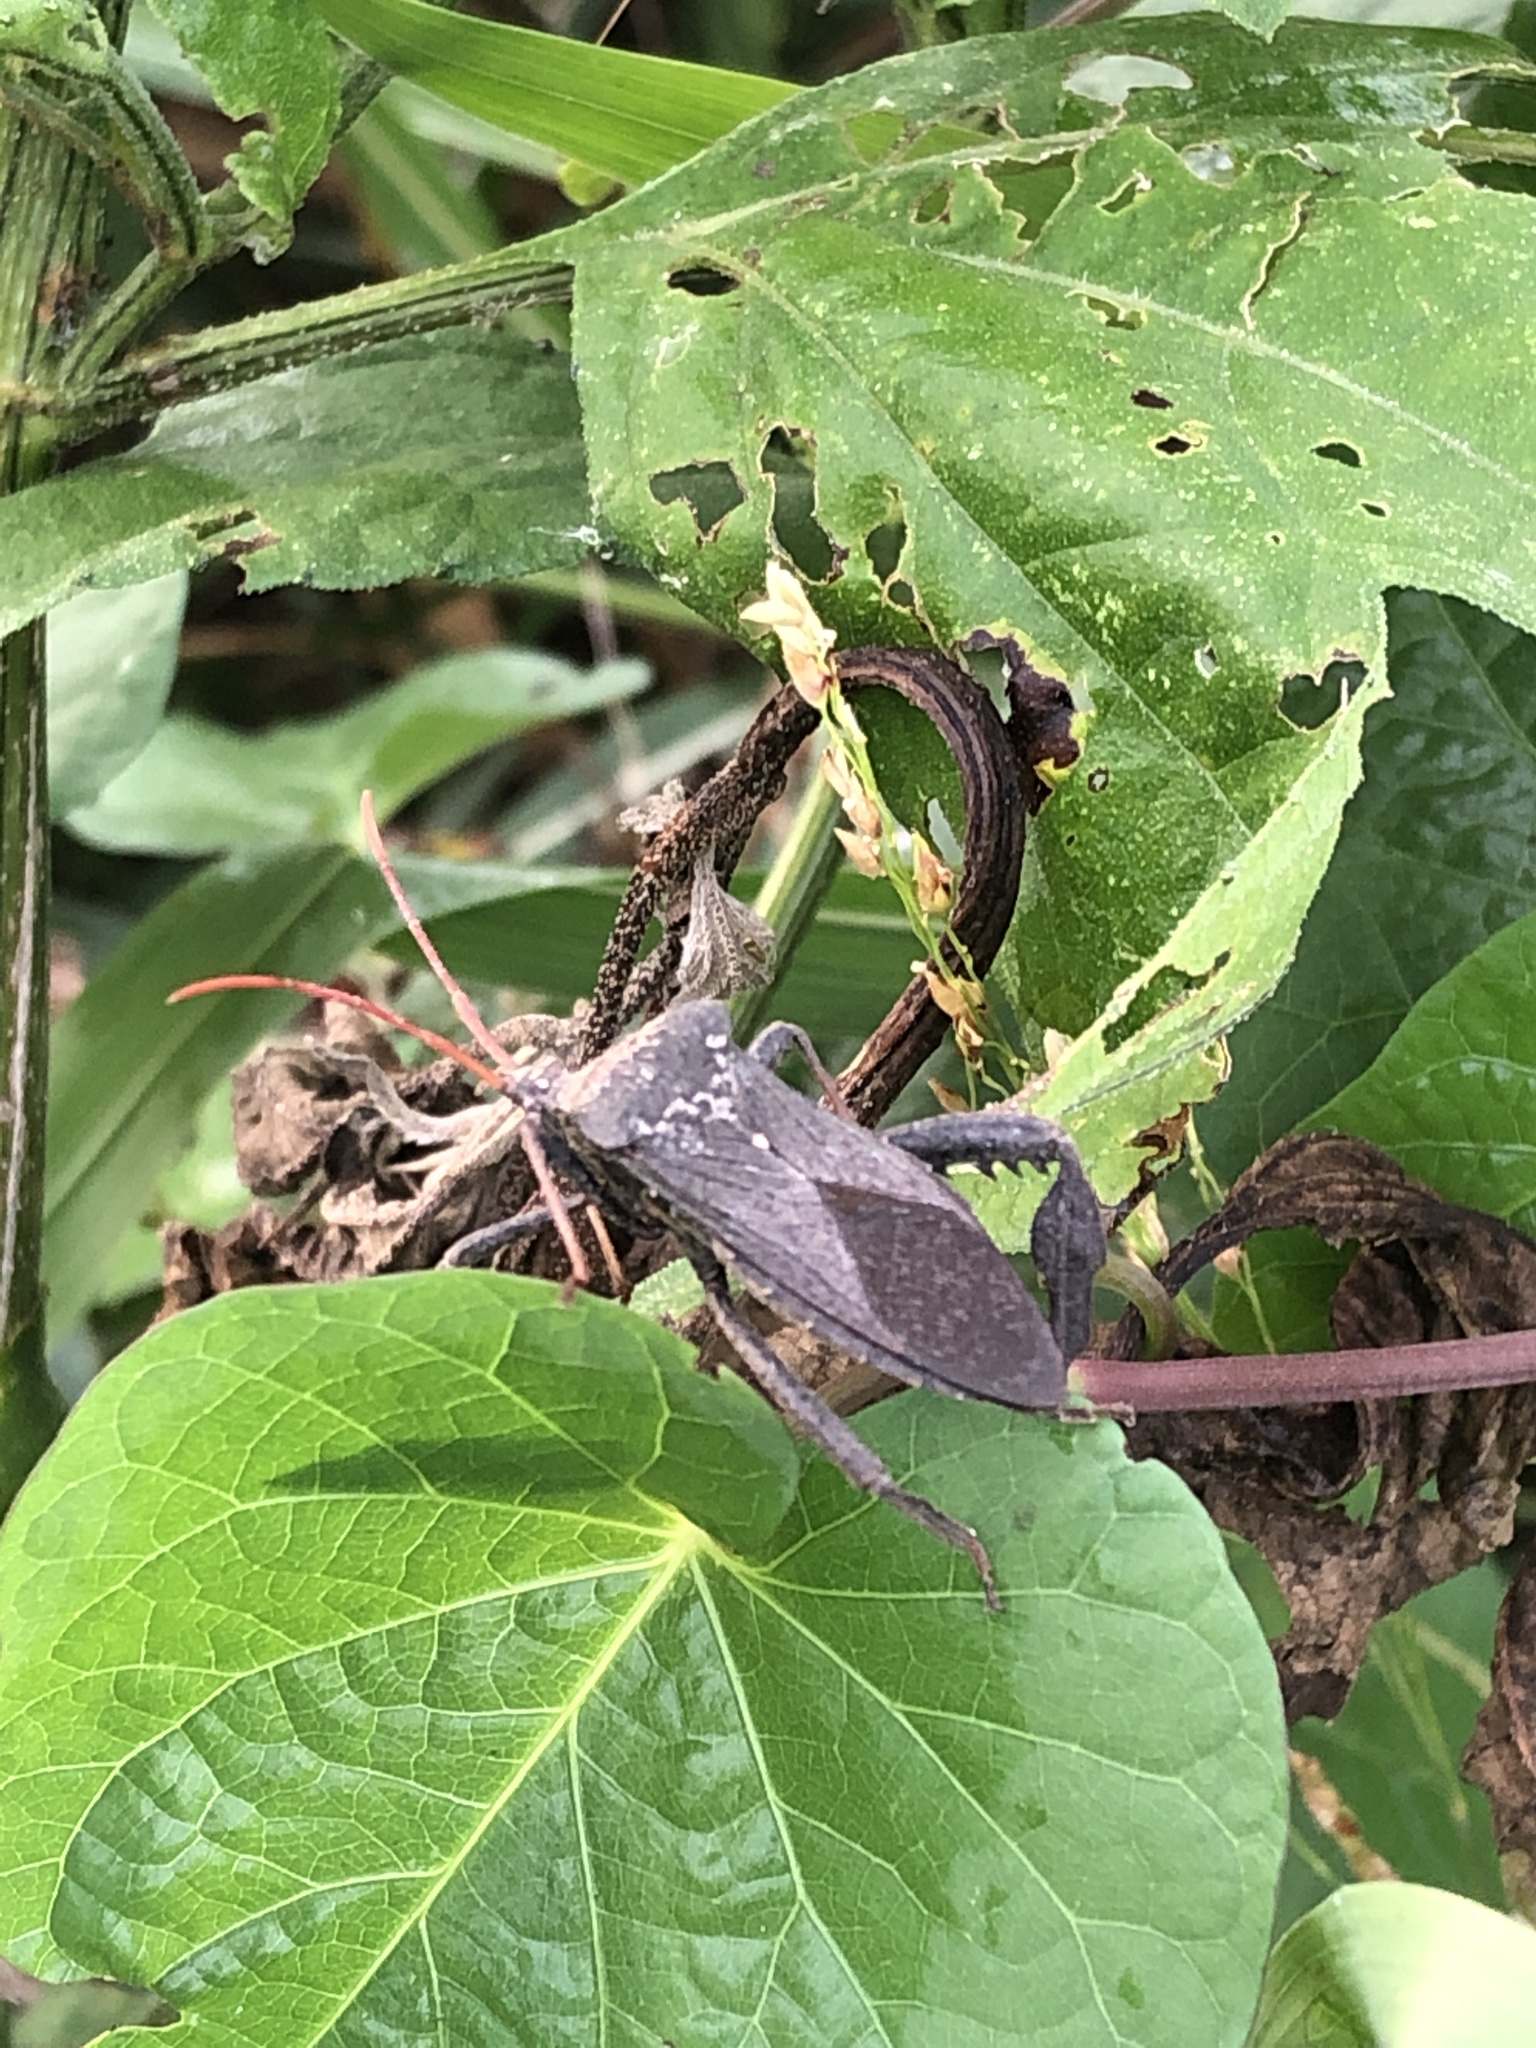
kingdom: Animalia
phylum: Arthropoda
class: Insecta
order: Hemiptera
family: Coreidae
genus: Acanthocephala
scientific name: Acanthocephala femorata
